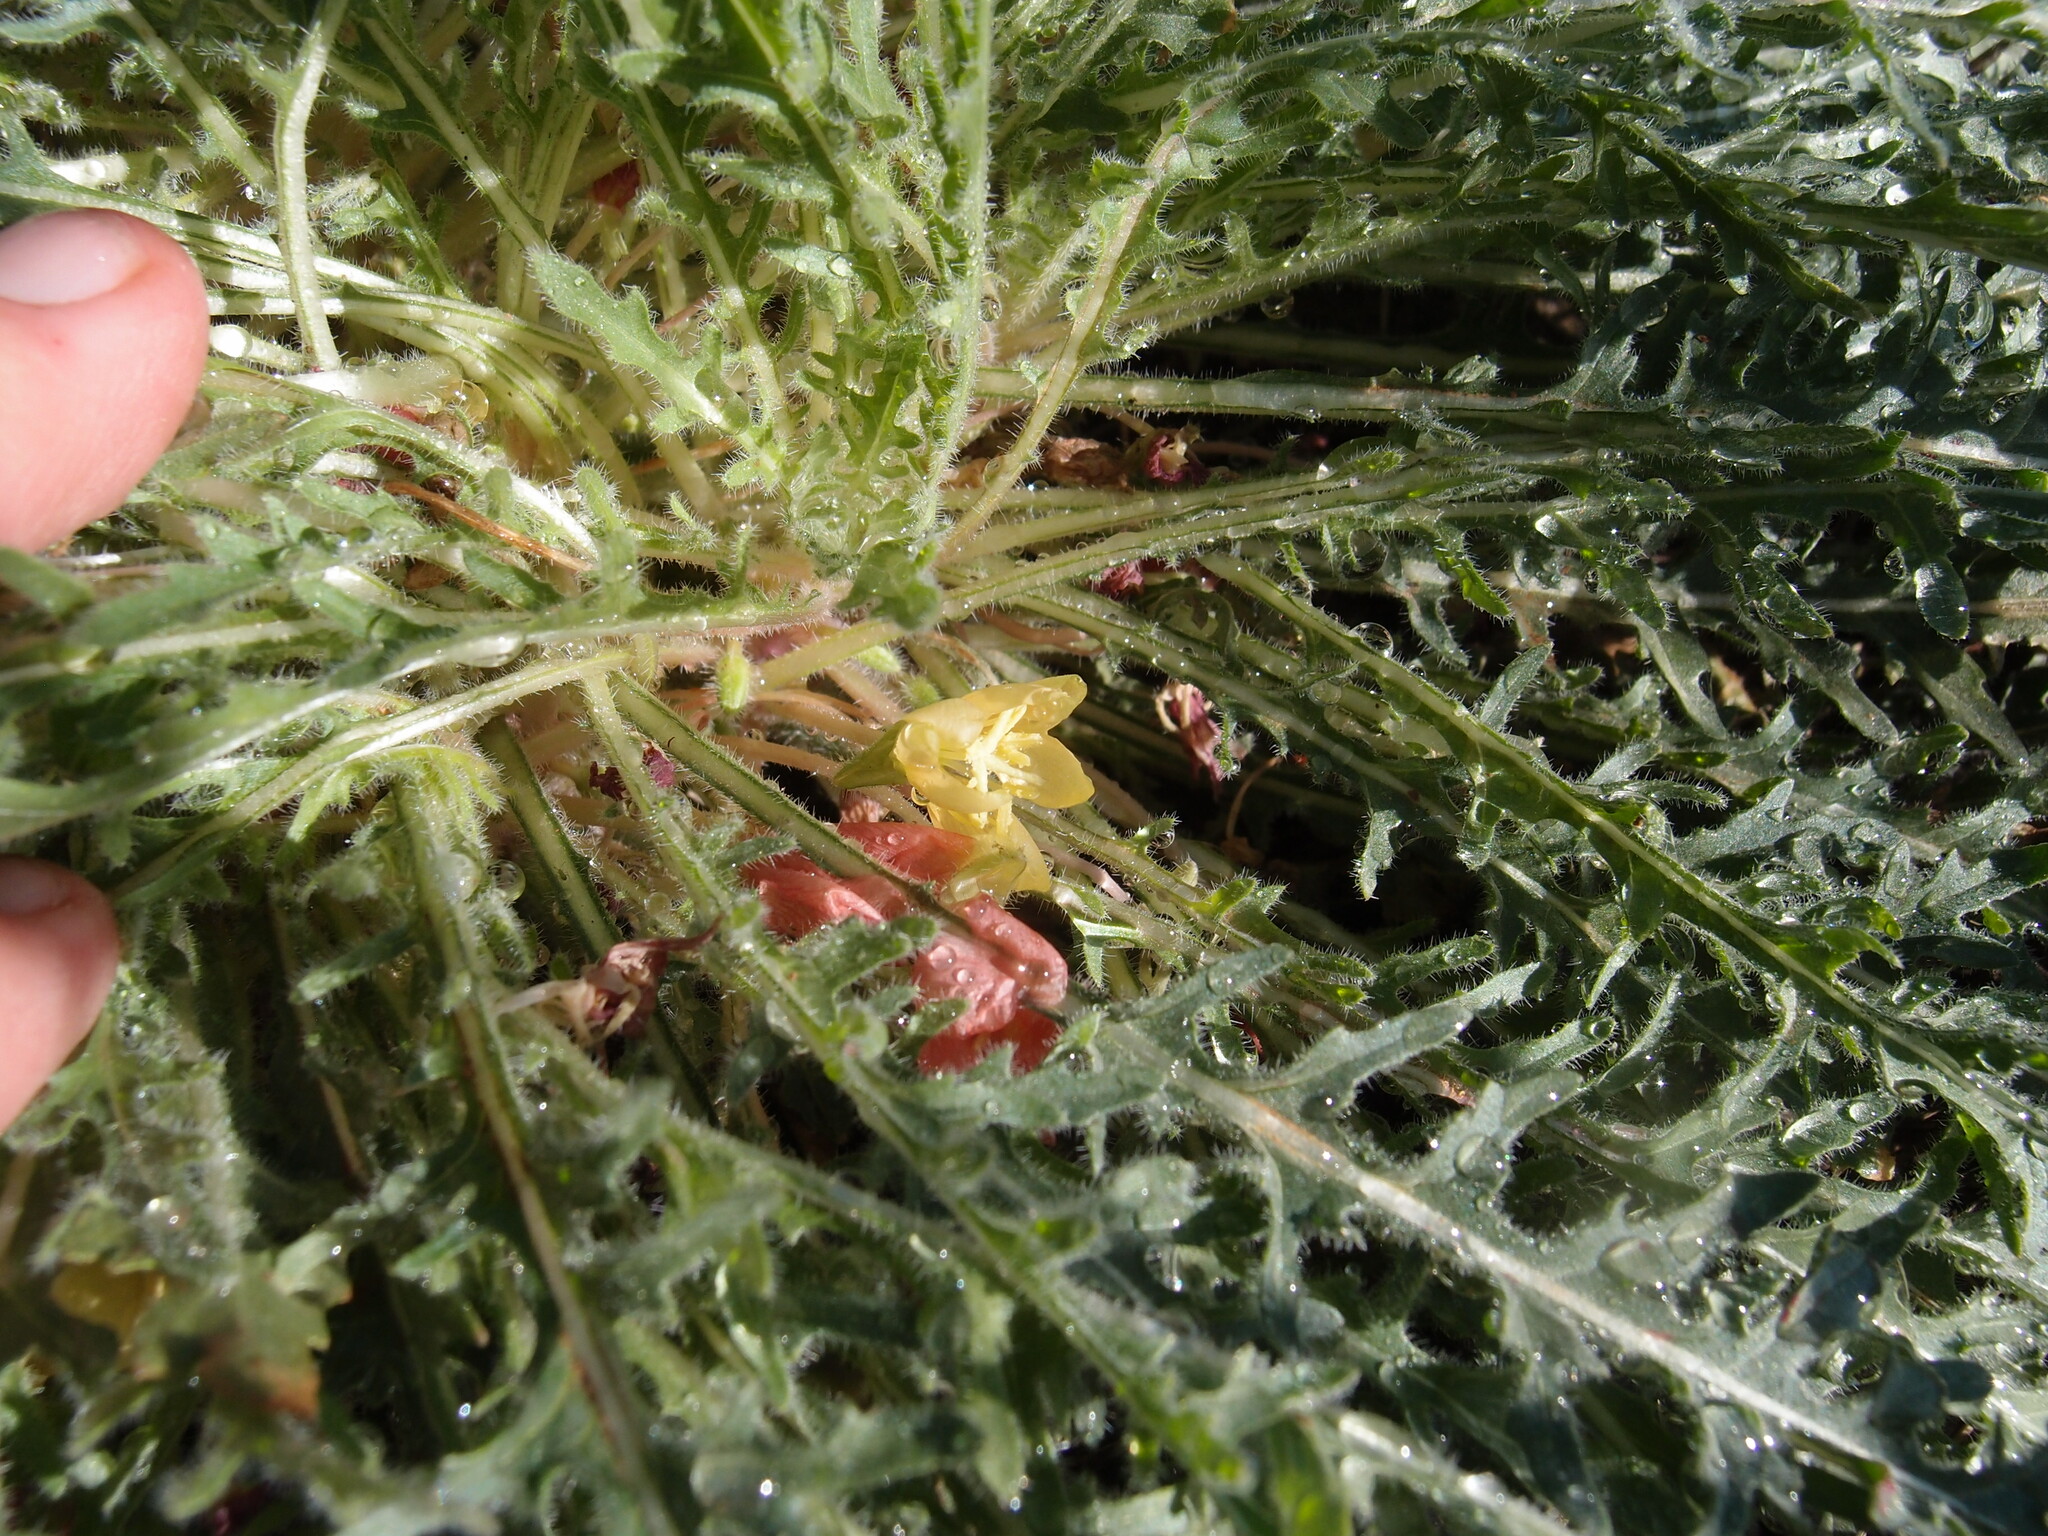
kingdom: Plantae
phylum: Tracheophyta
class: Magnoliopsida
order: Myrtales
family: Onagraceae
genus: Oenothera
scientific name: Oenothera primiveris
